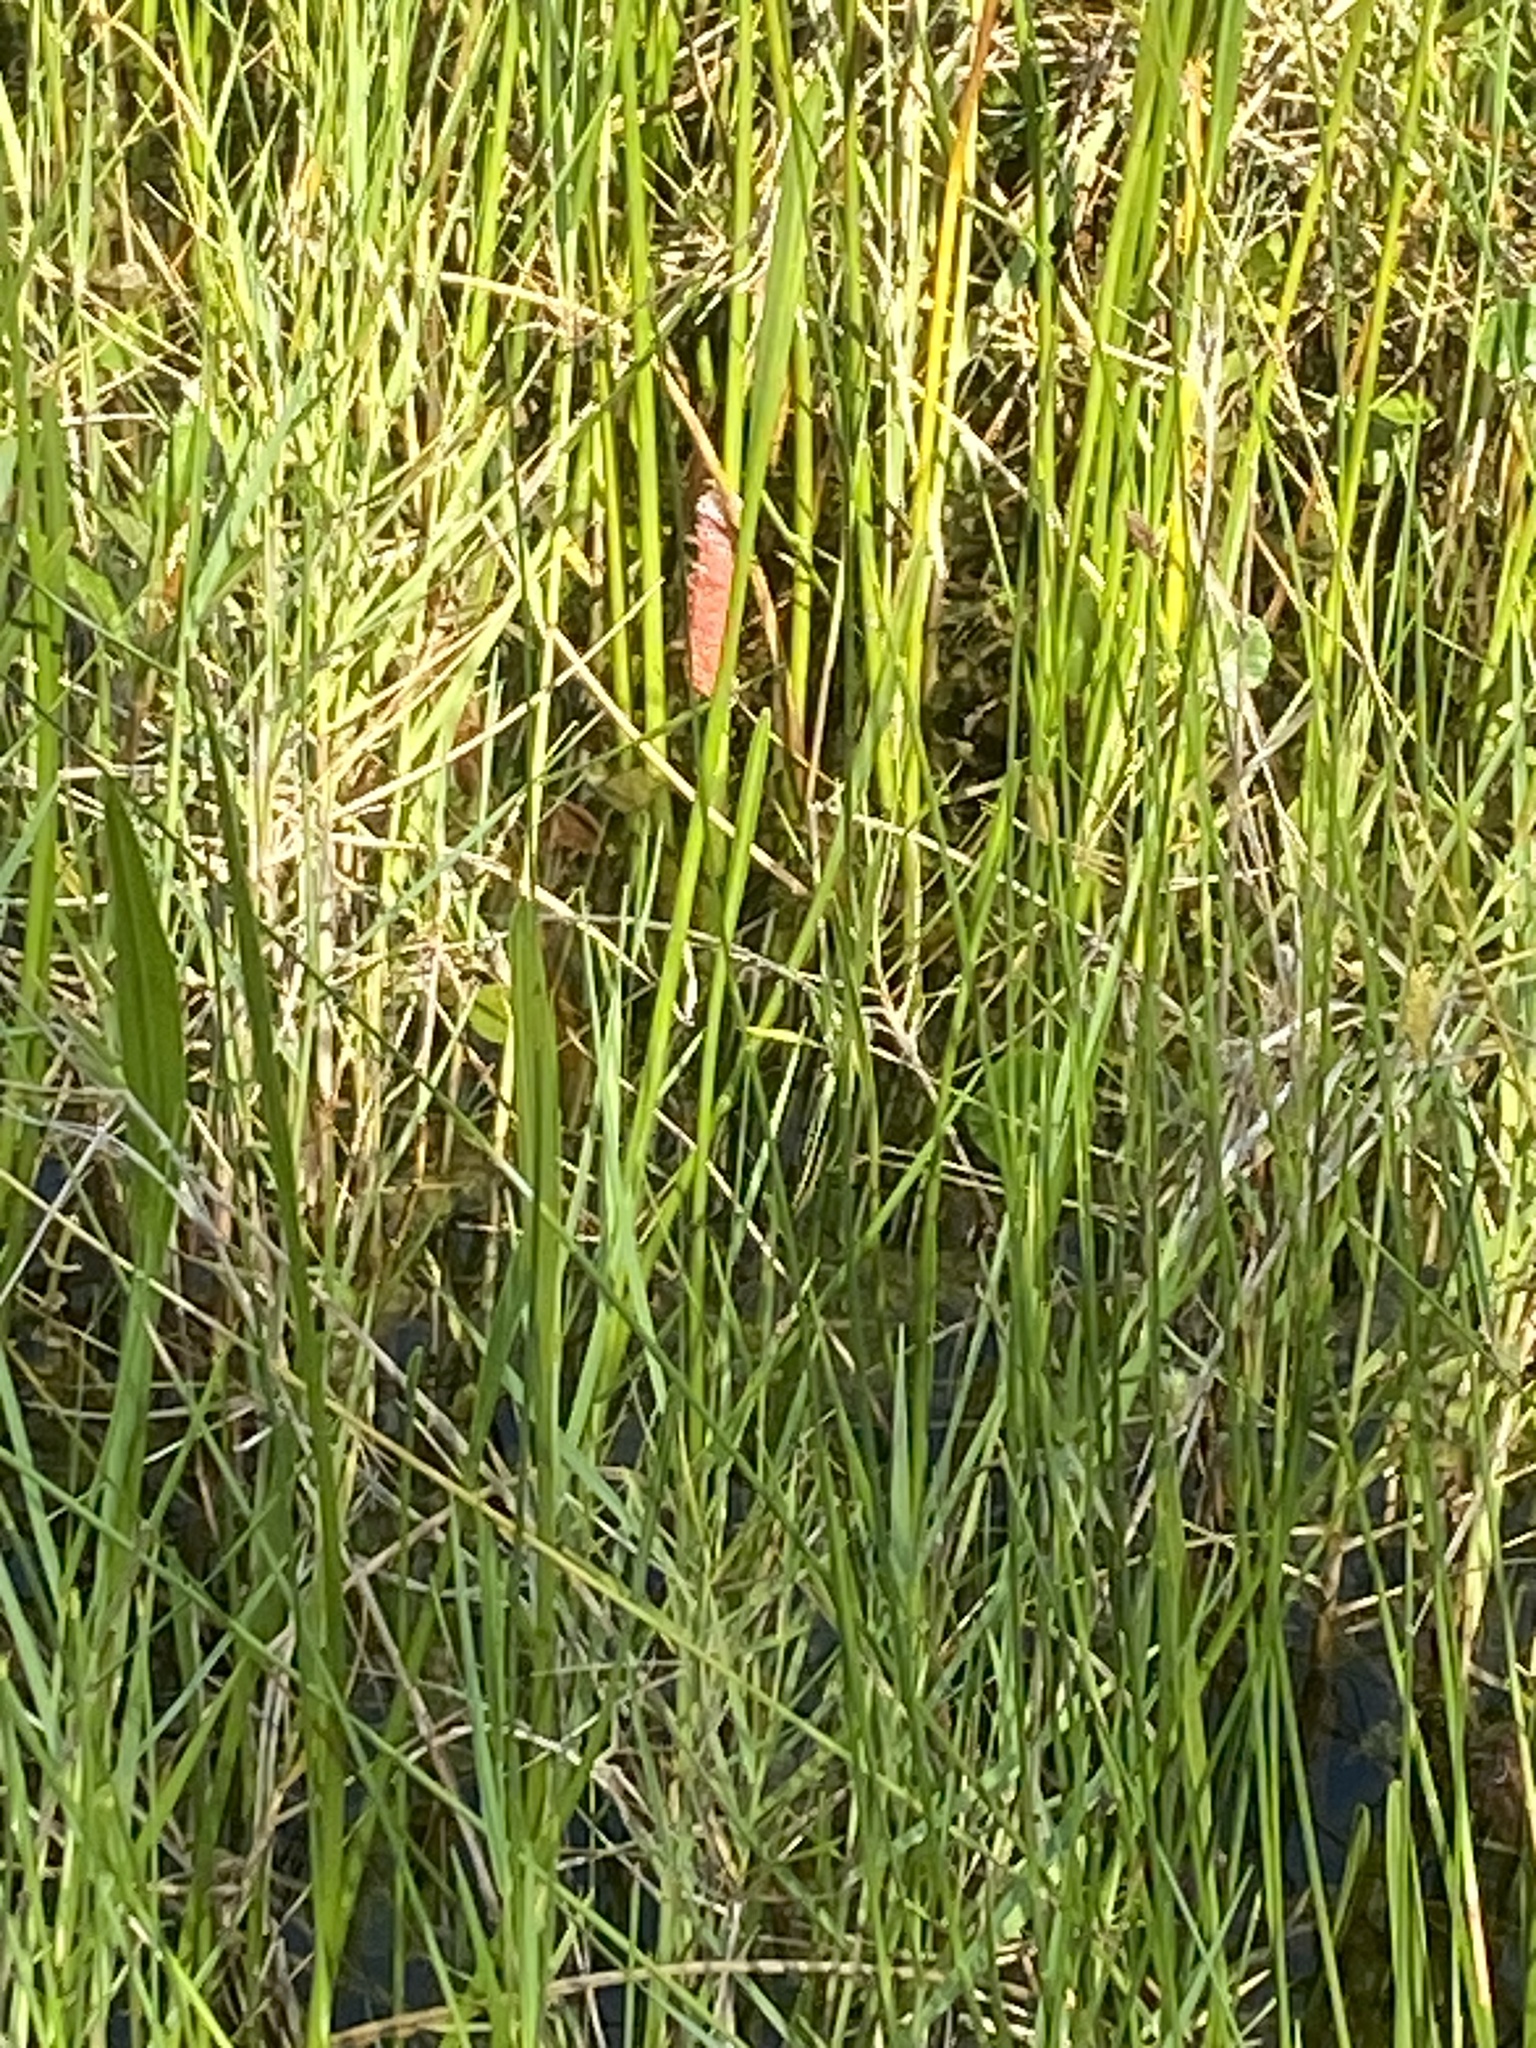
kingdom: Animalia
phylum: Mollusca
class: Gastropoda
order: Architaenioglossa
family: Ampullariidae
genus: Pomacea
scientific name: Pomacea maculata
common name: Giant applesnail
